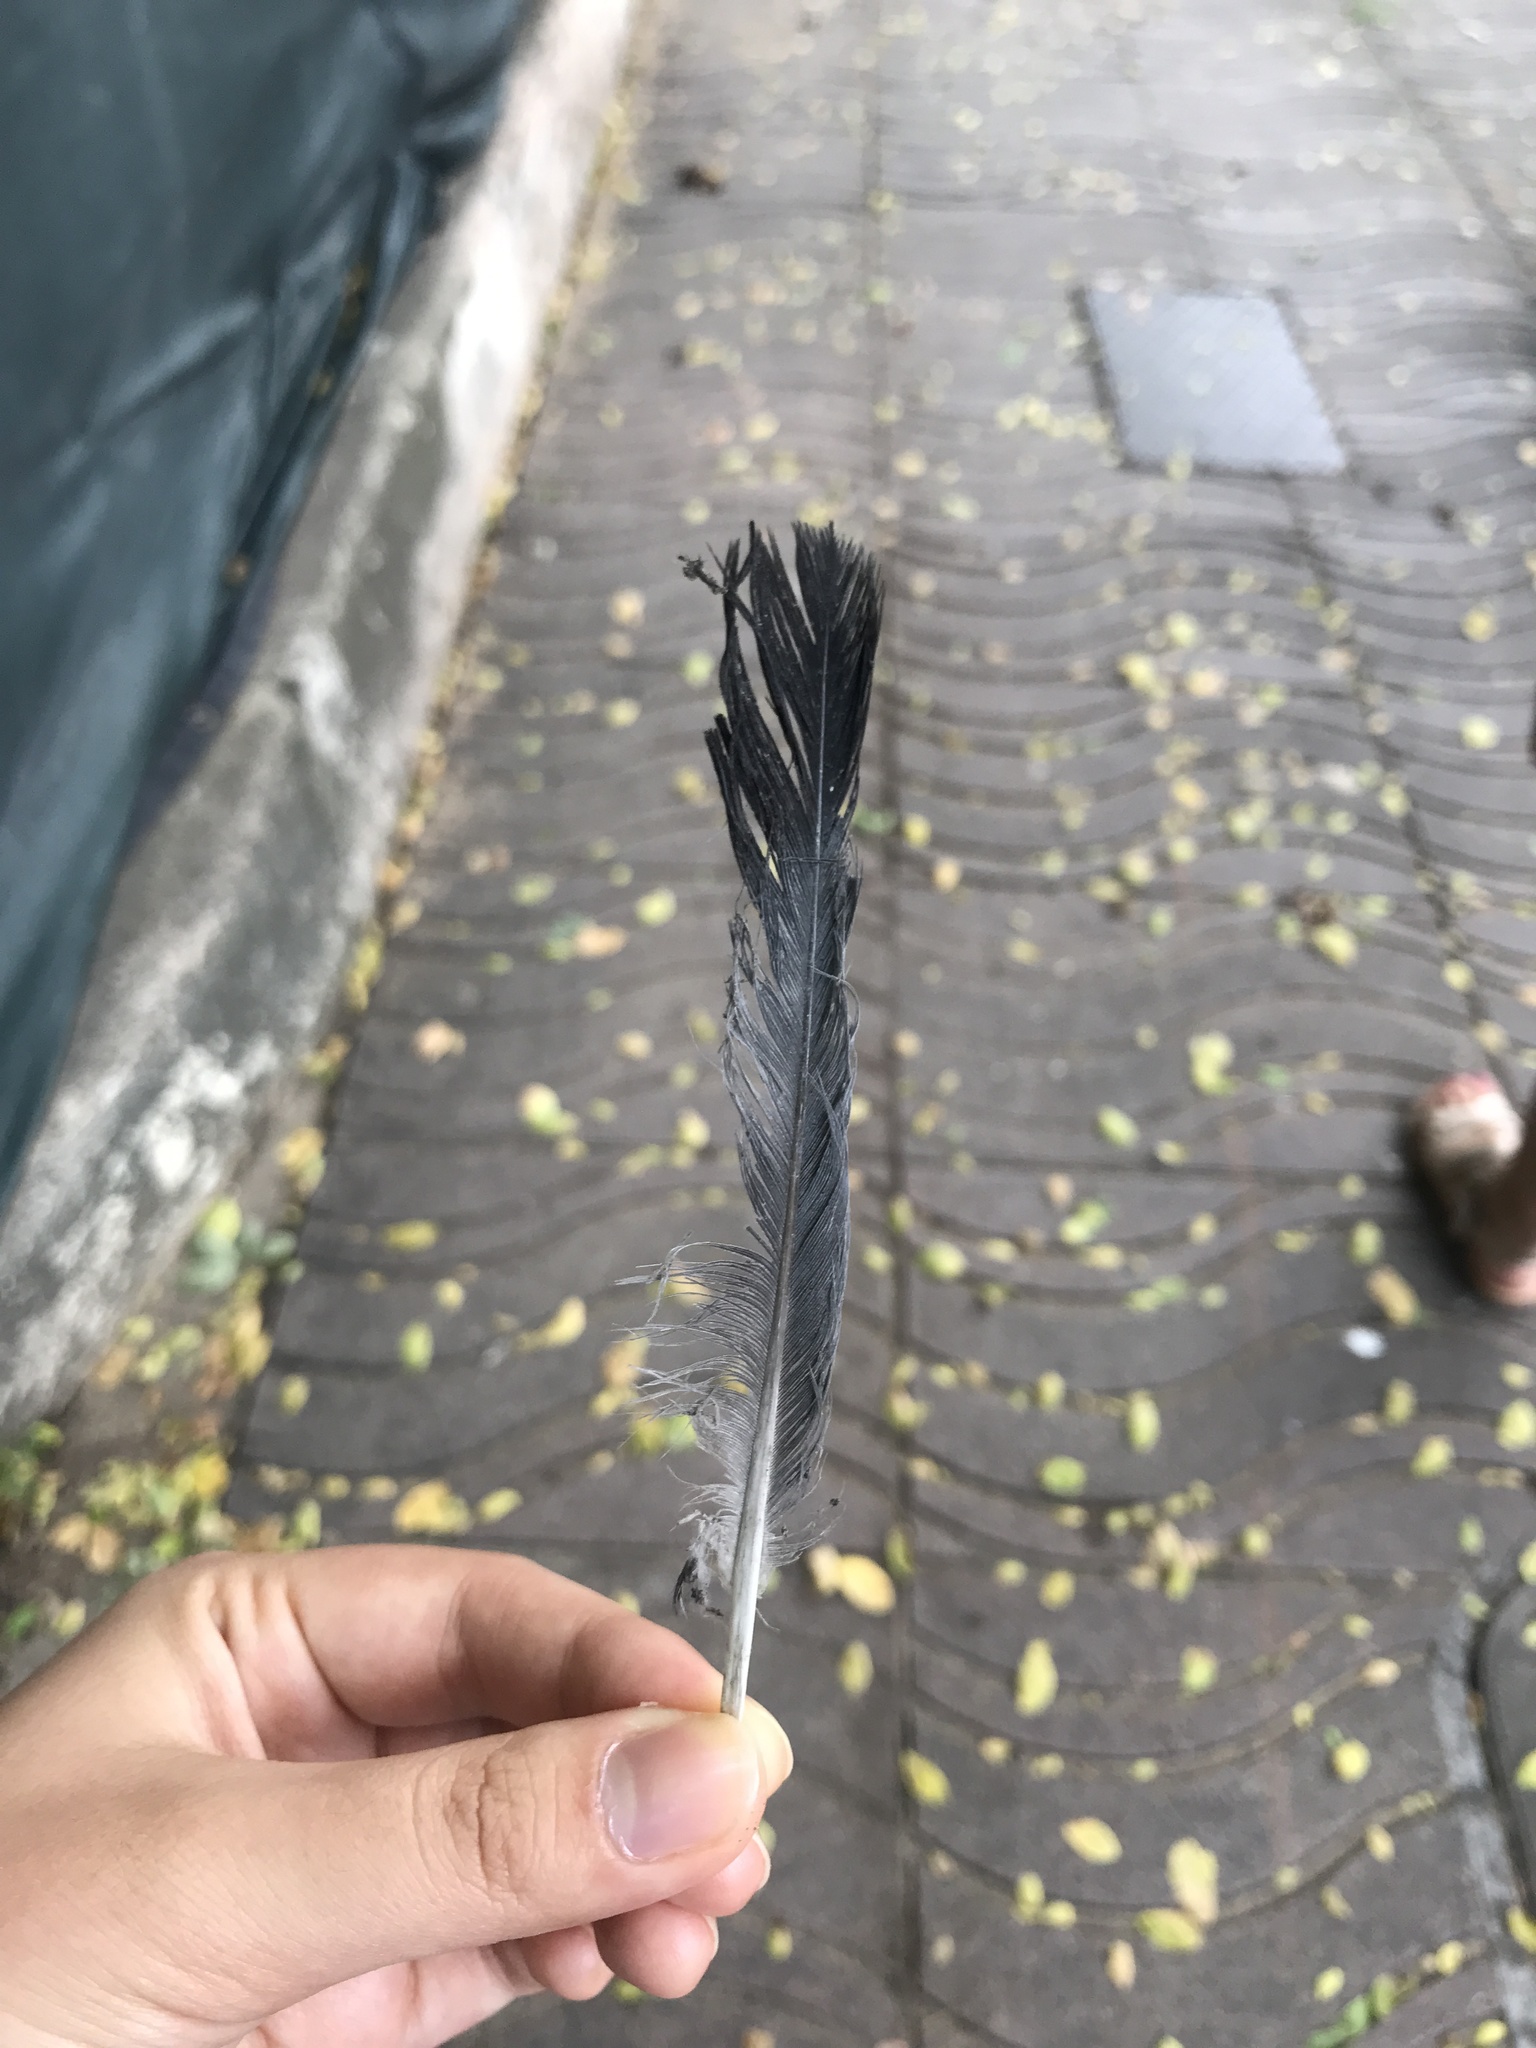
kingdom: Animalia
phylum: Chordata
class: Aves
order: Columbiformes
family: Columbidae
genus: Columba
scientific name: Columba livia
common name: Rock pigeon
